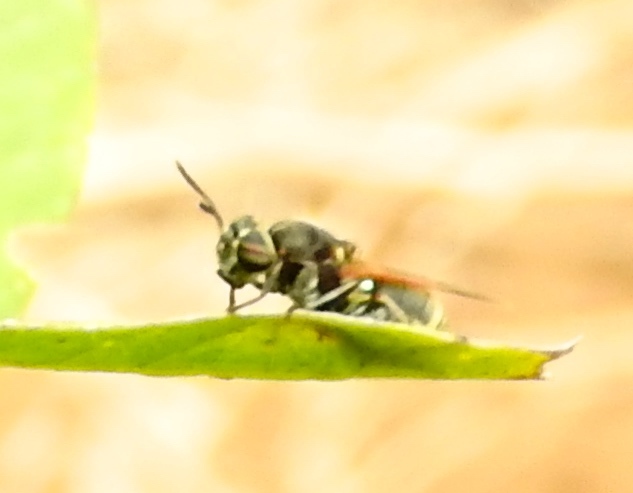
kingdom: Animalia
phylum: Arthropoda
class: Insecta
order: Diptera
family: Stratiomyidae
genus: Hoplitimyia
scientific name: Hoplitimyia
